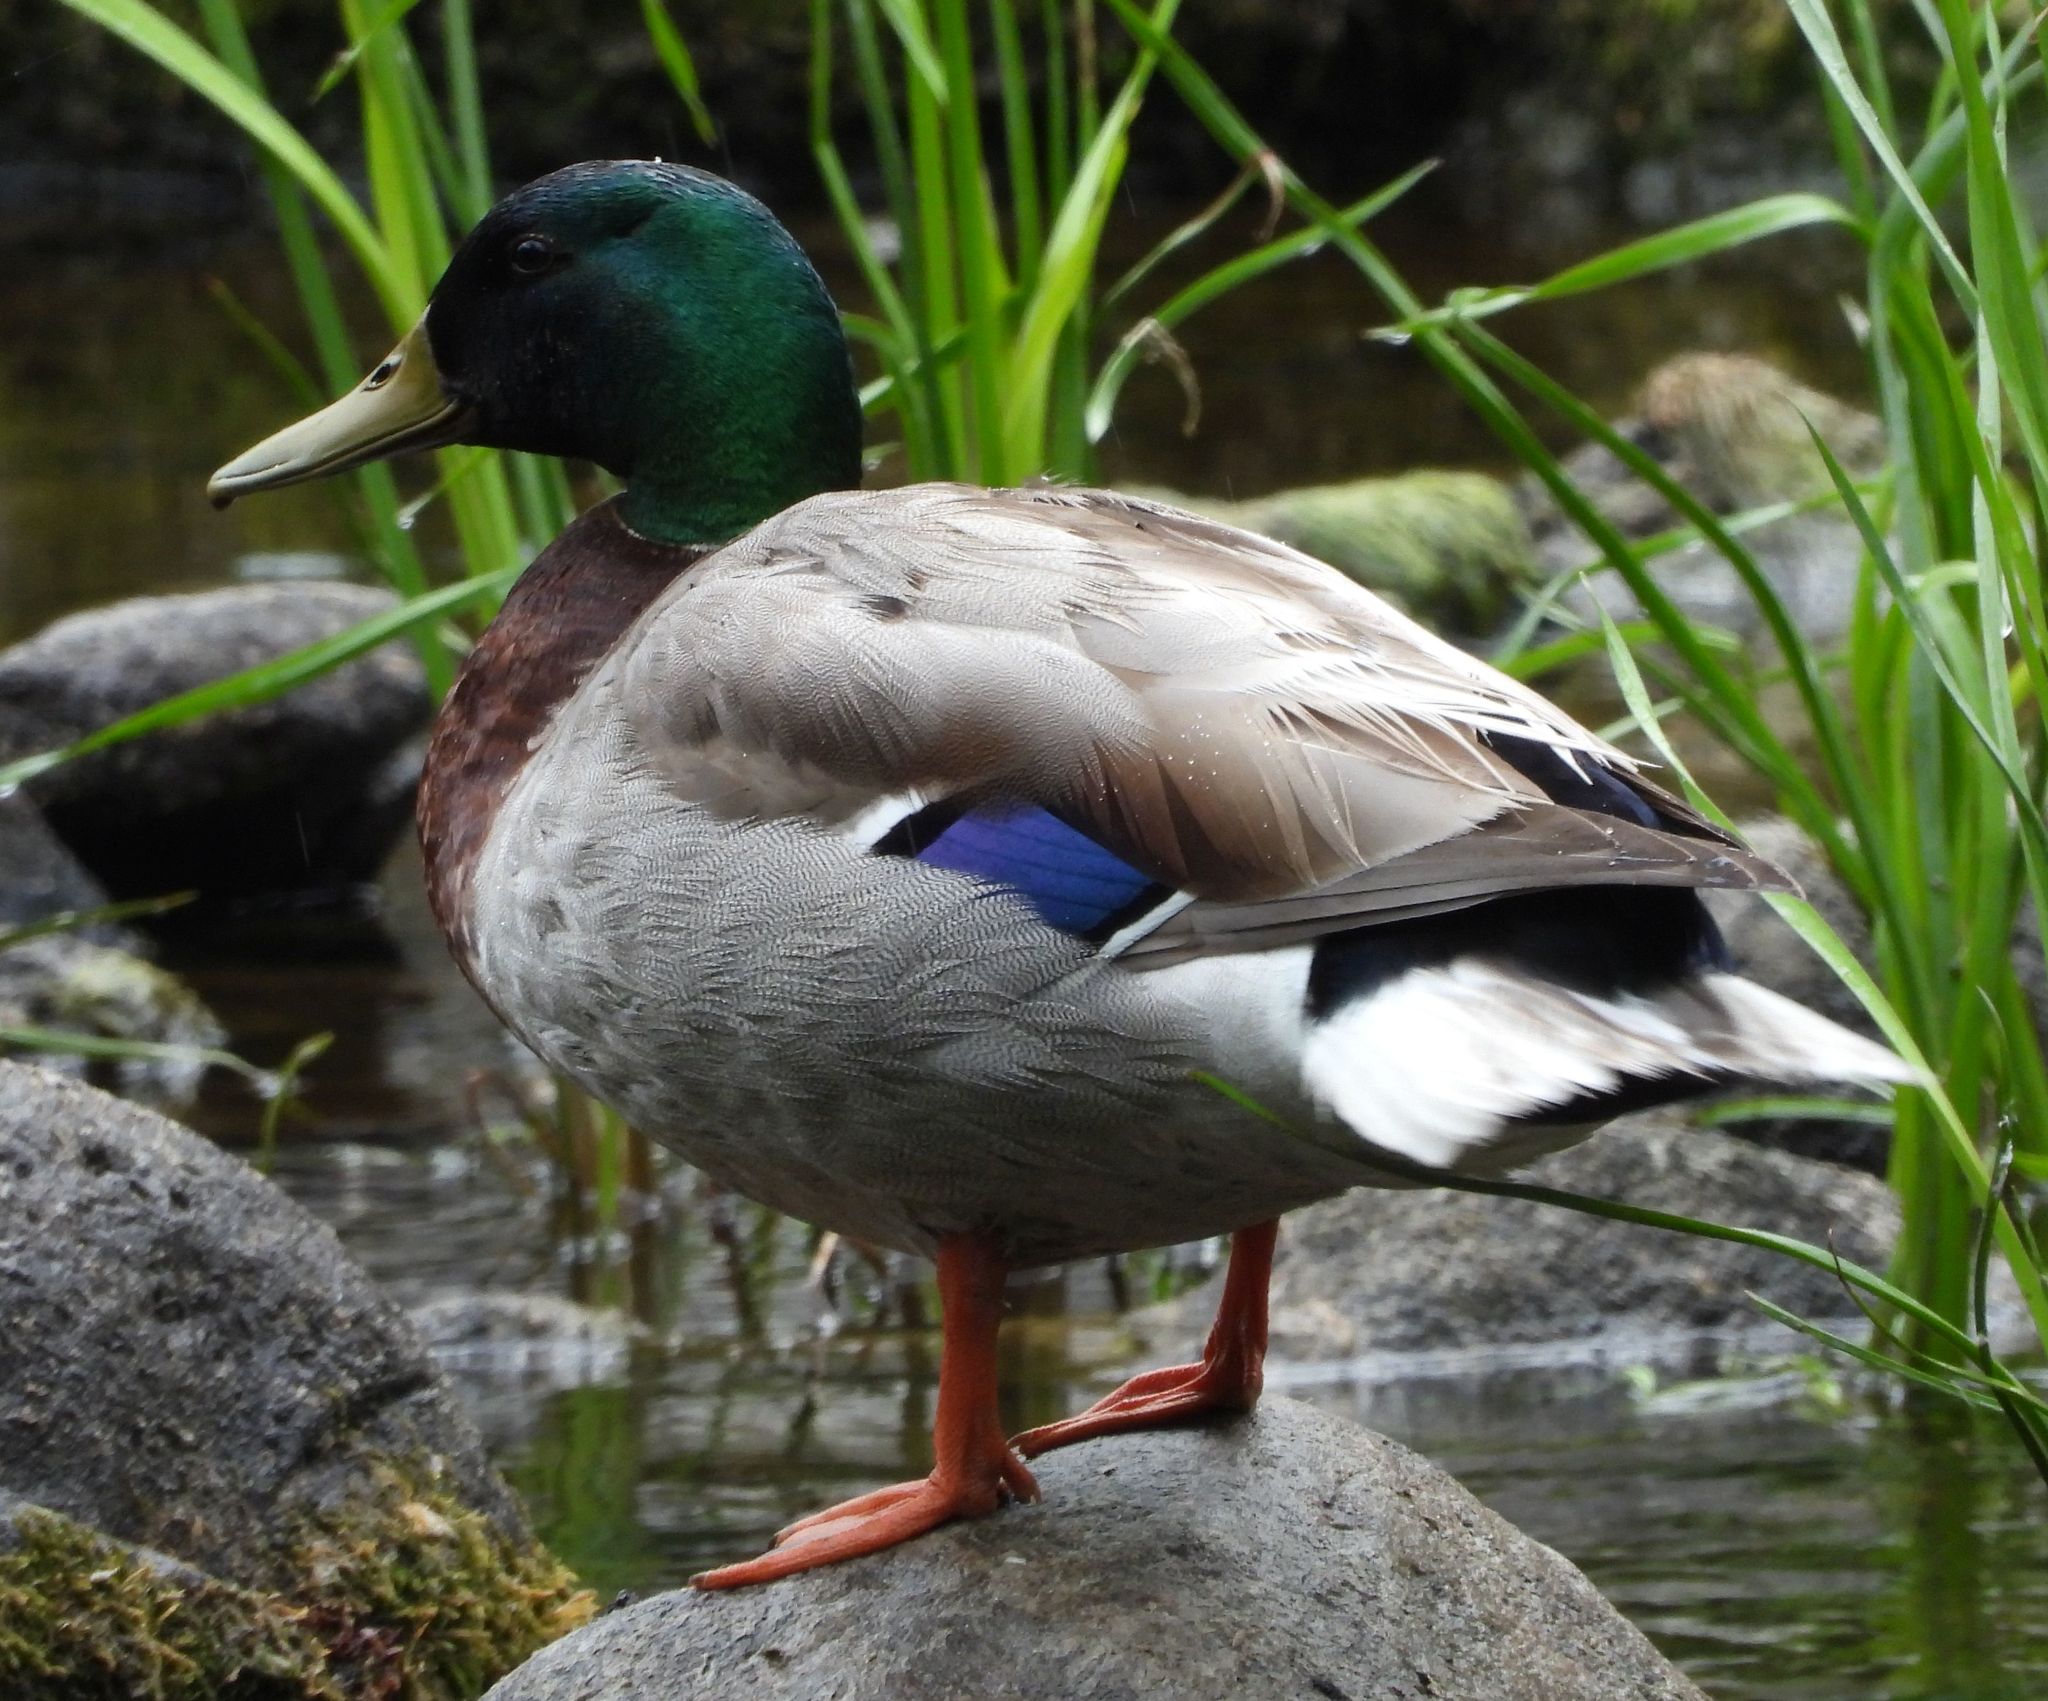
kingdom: Animalia
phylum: Chordata
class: Aves
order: Anseriformes
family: Anatidae
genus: Anas
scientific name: Anas platyrhynchos
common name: Mallard
